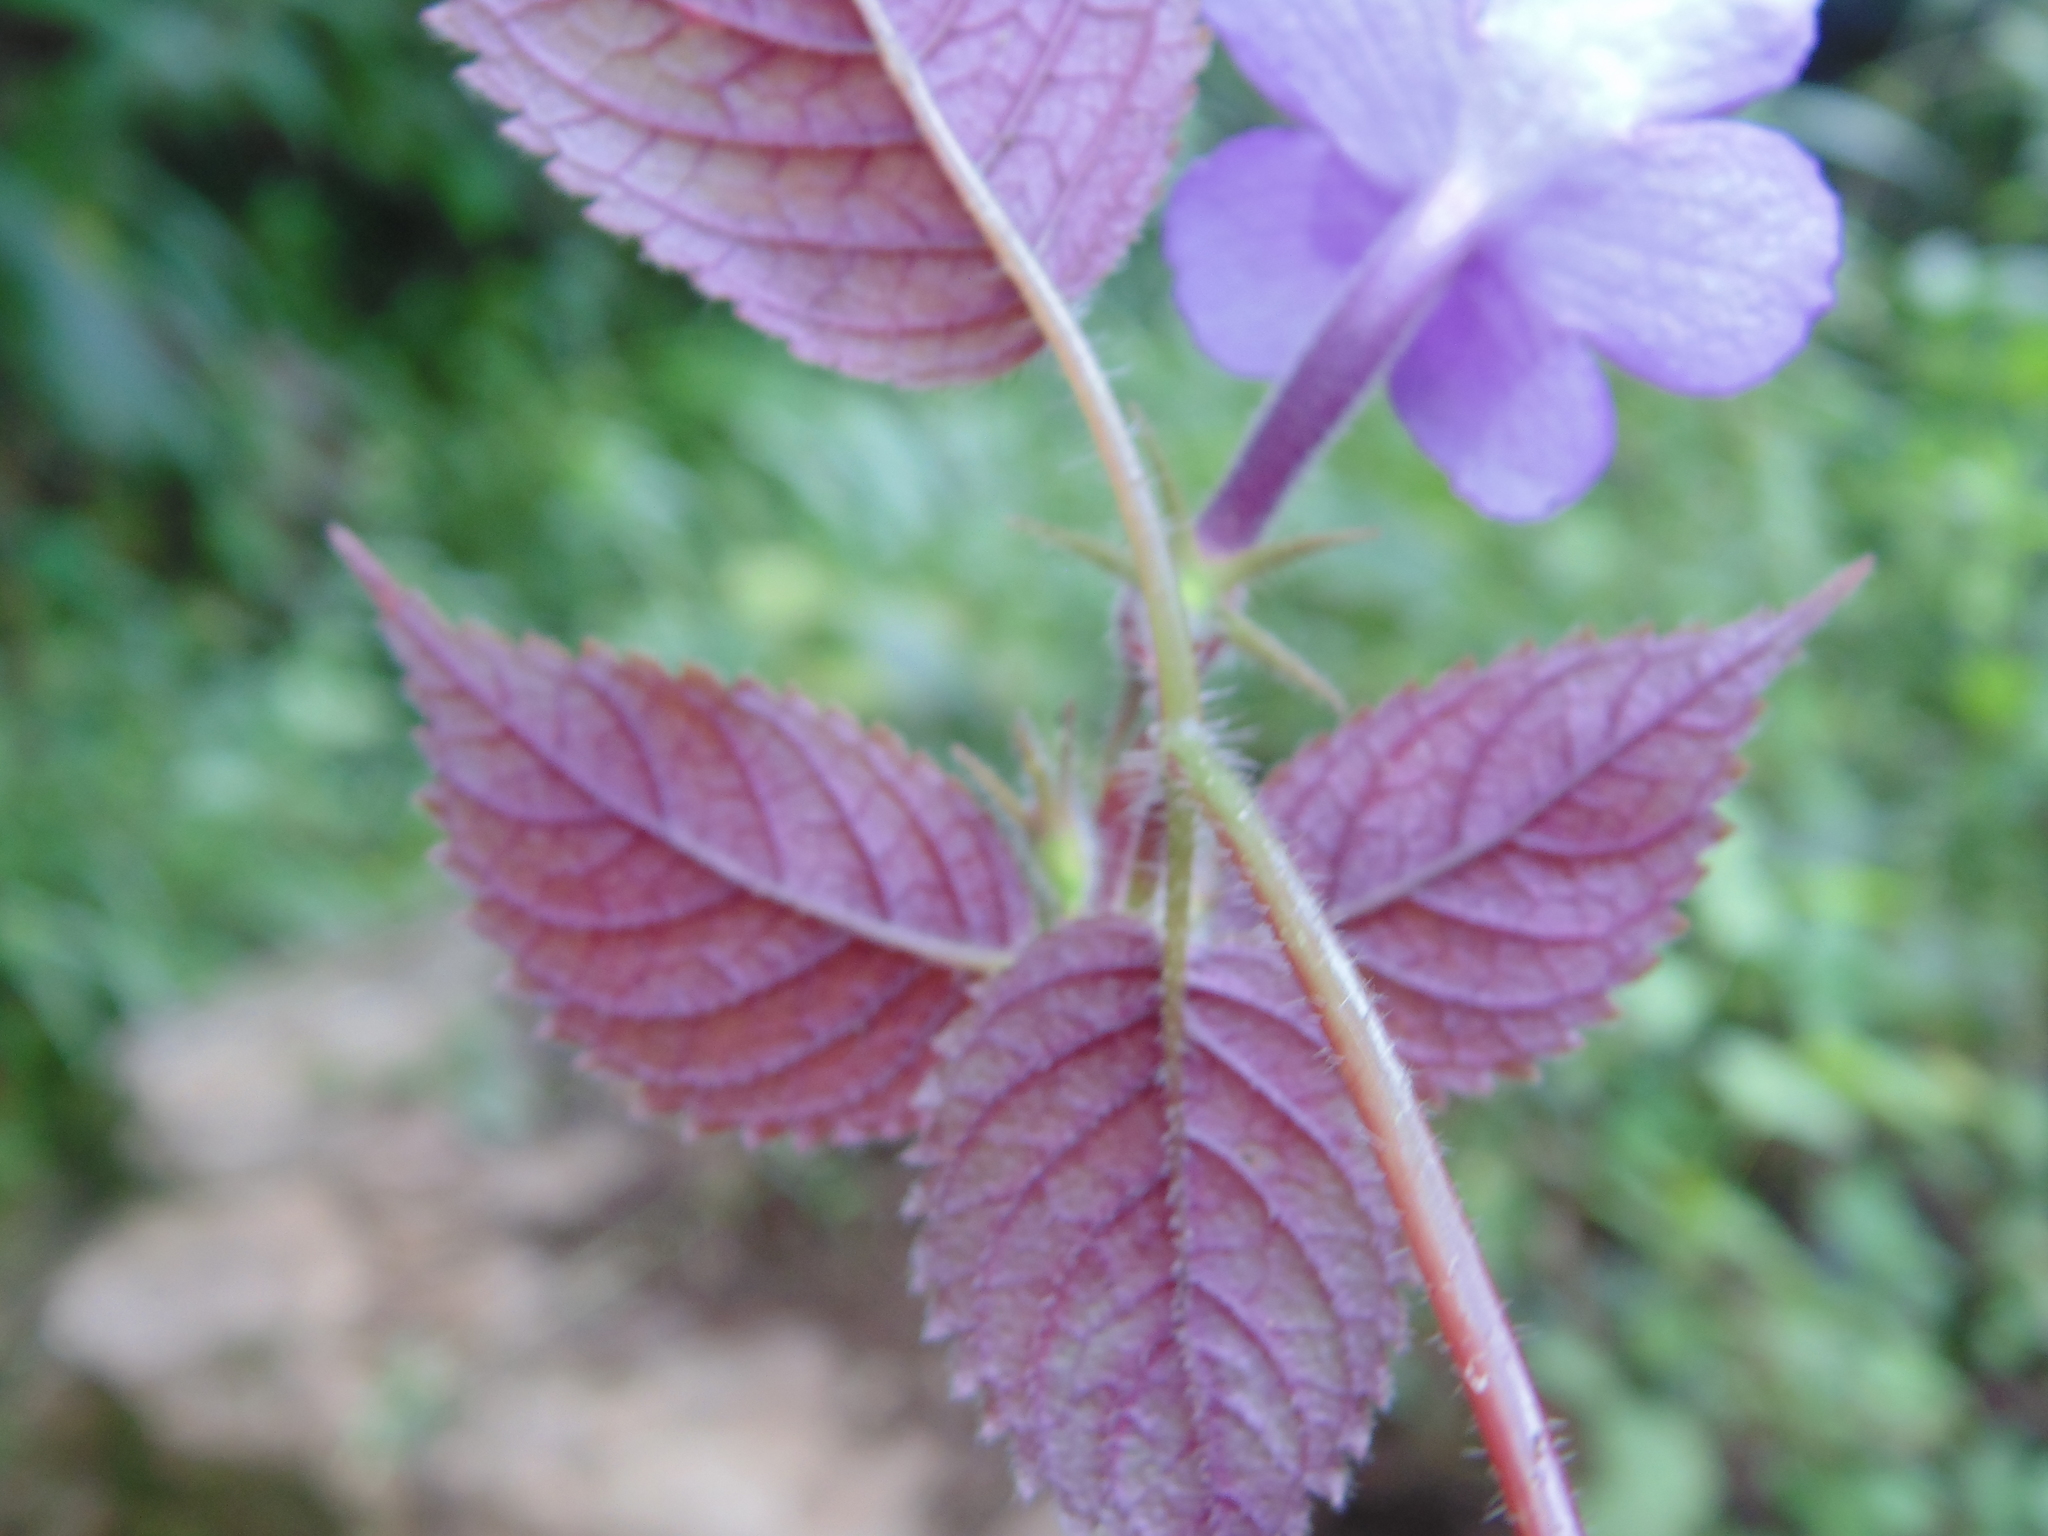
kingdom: Plantae
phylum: Tracheophyta
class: Magnoliopsida
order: Lamiales
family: Gesneriaceae
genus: Achimenes
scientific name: Achimenes grandiflora
